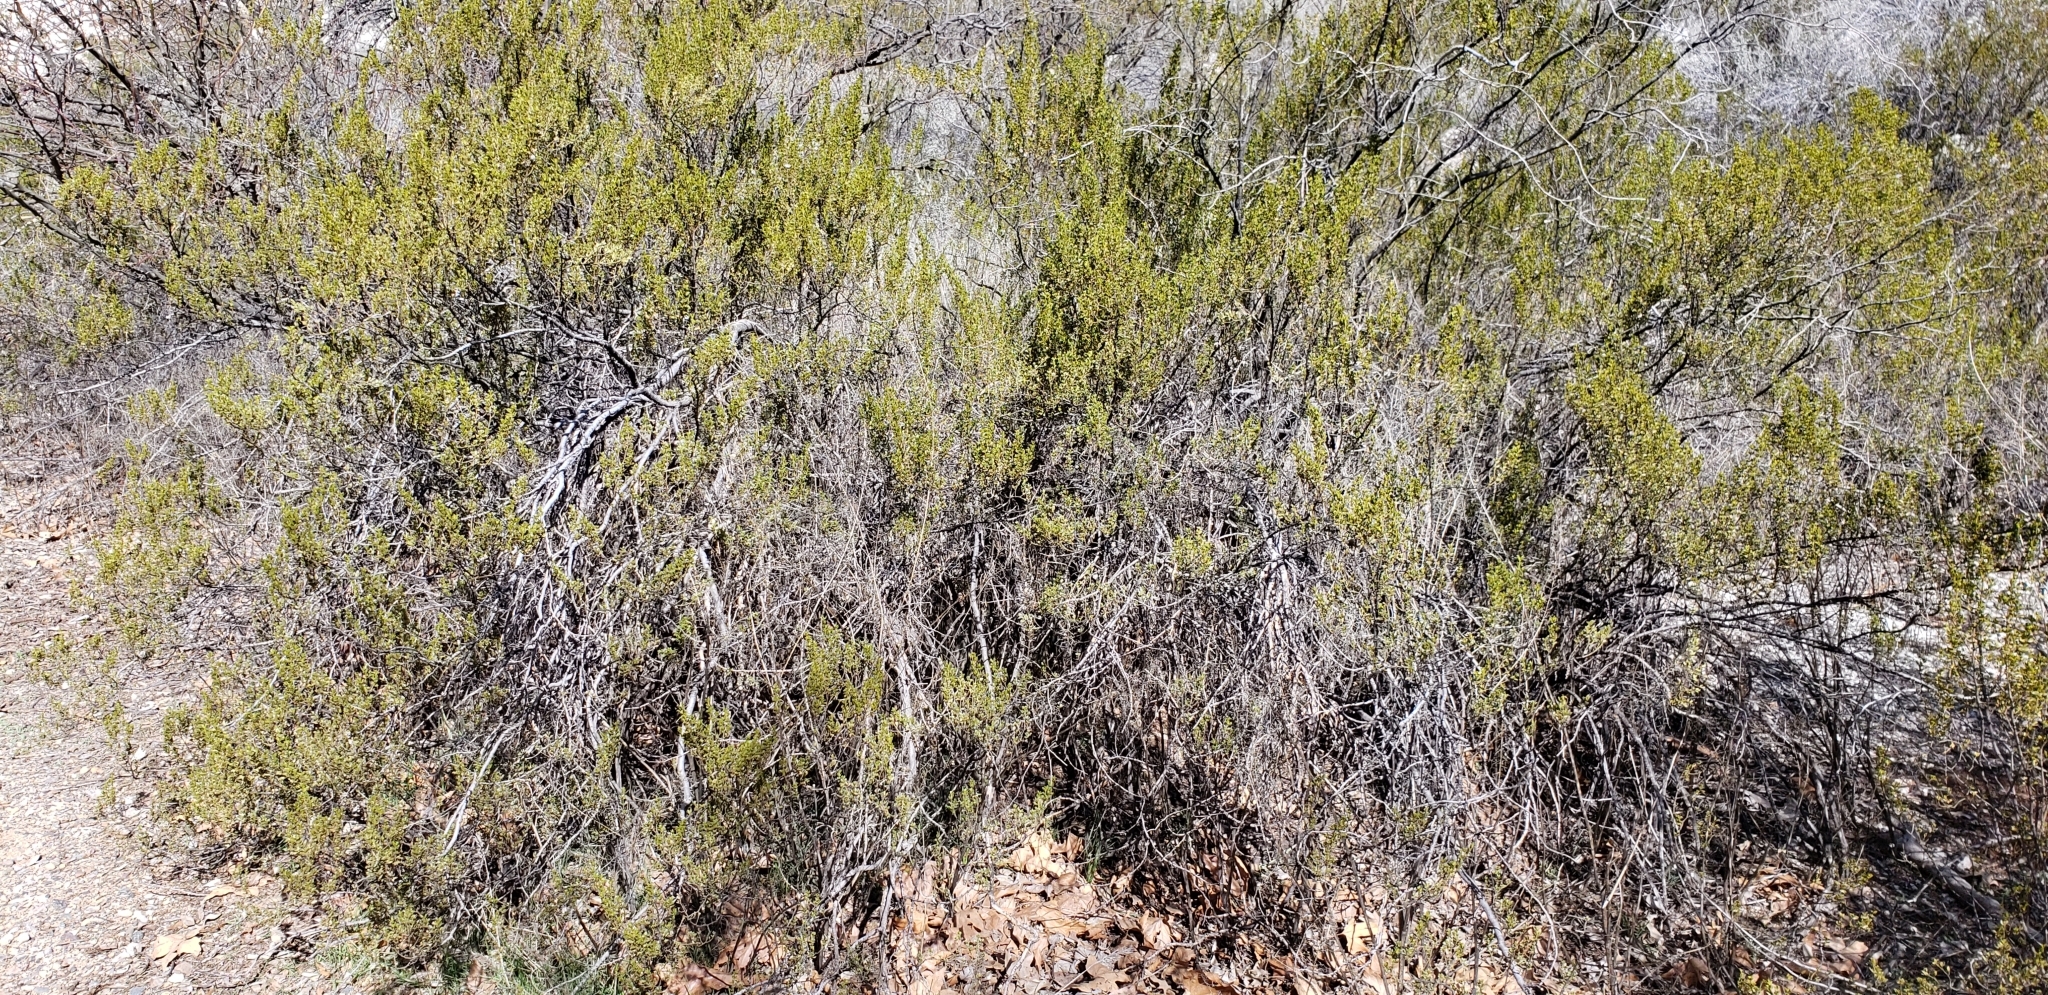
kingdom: Plantae
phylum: Tracheophyta
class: Magnoliopsida
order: Zygophyllales
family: Zygophyllaceae
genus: Larrea
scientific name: Larrea tridentata
